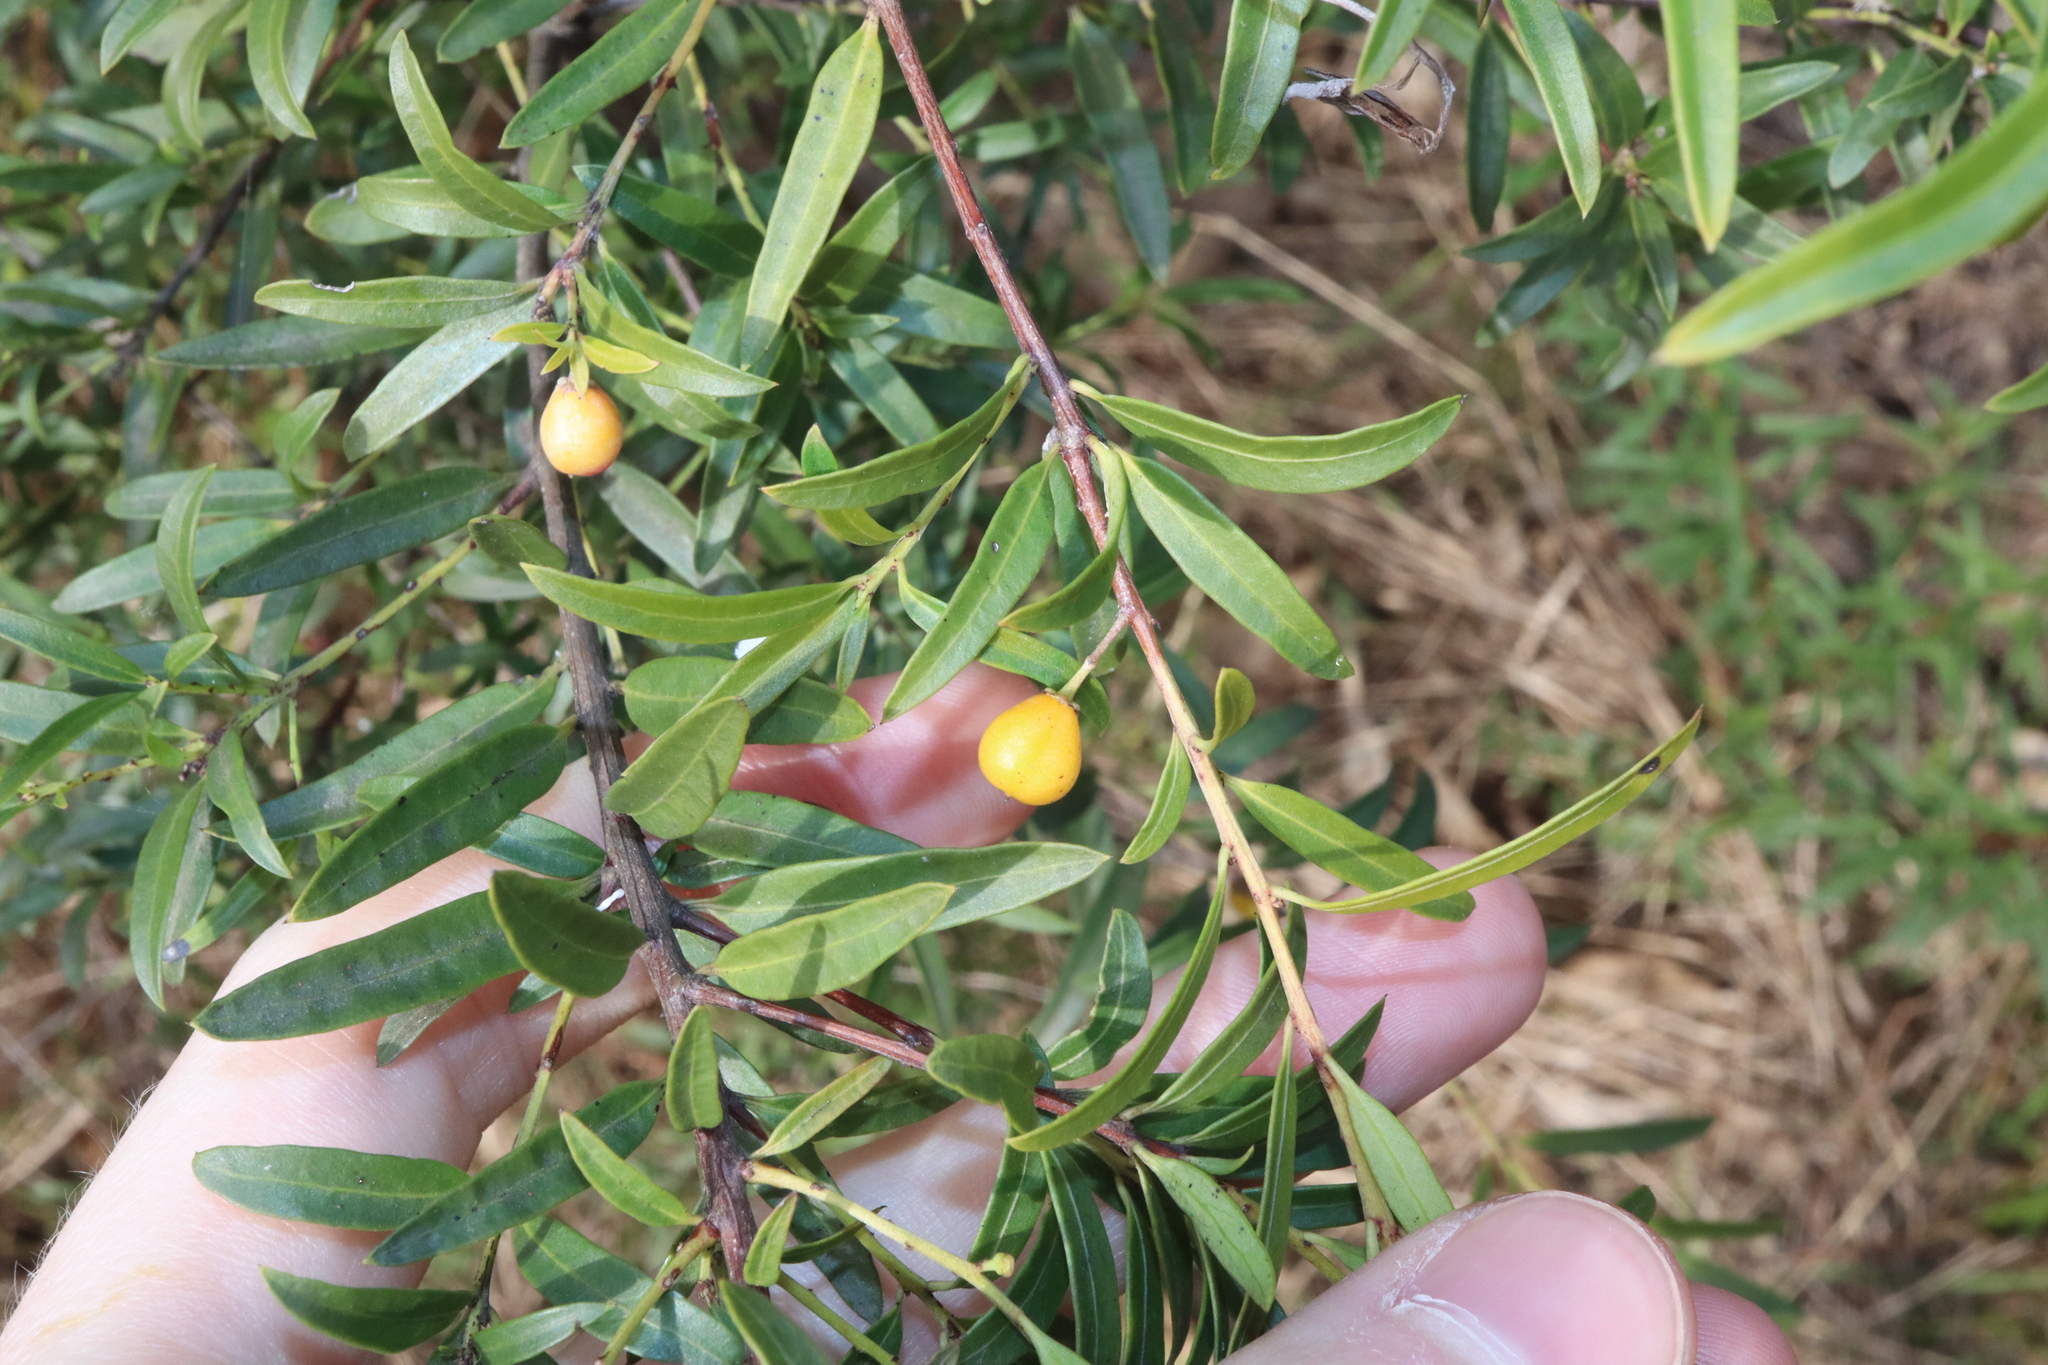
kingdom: Plantae
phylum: Tracheophyta
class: Magnoliopsida
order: Celastrales
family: Celastraceae
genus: Denhamia
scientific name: Denhamia silvestris
